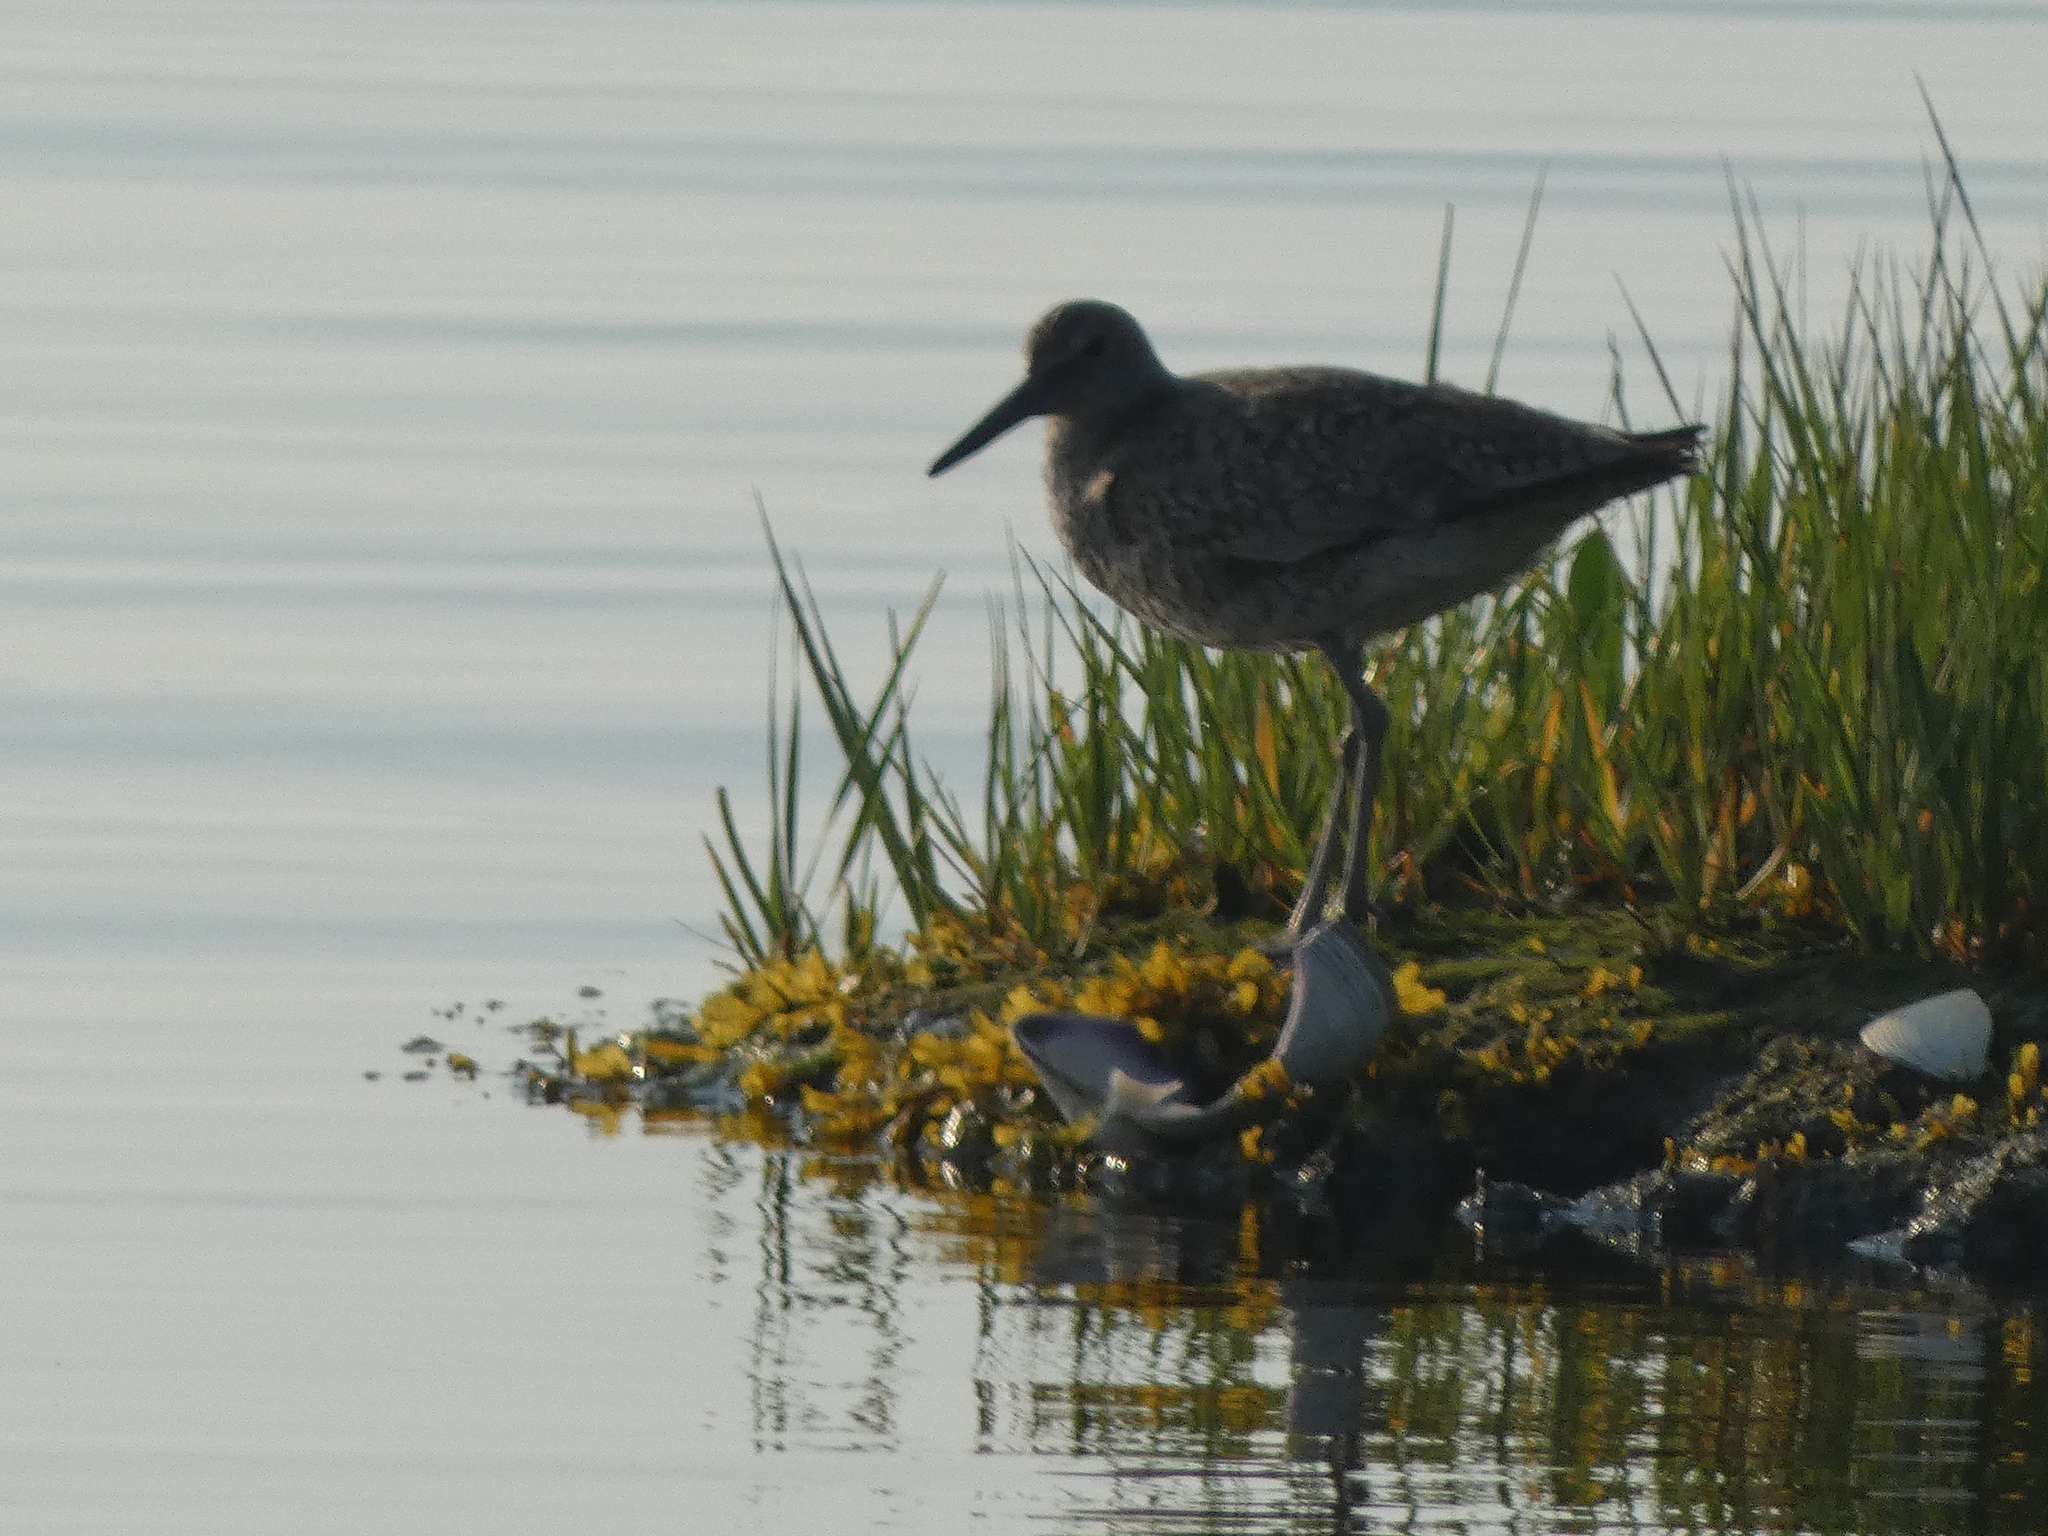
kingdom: Animalia
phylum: Chordata
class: Aves
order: Charadriiformes
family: Scolopacidae
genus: Tringa
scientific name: Tringa semipalmata
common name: Willet
